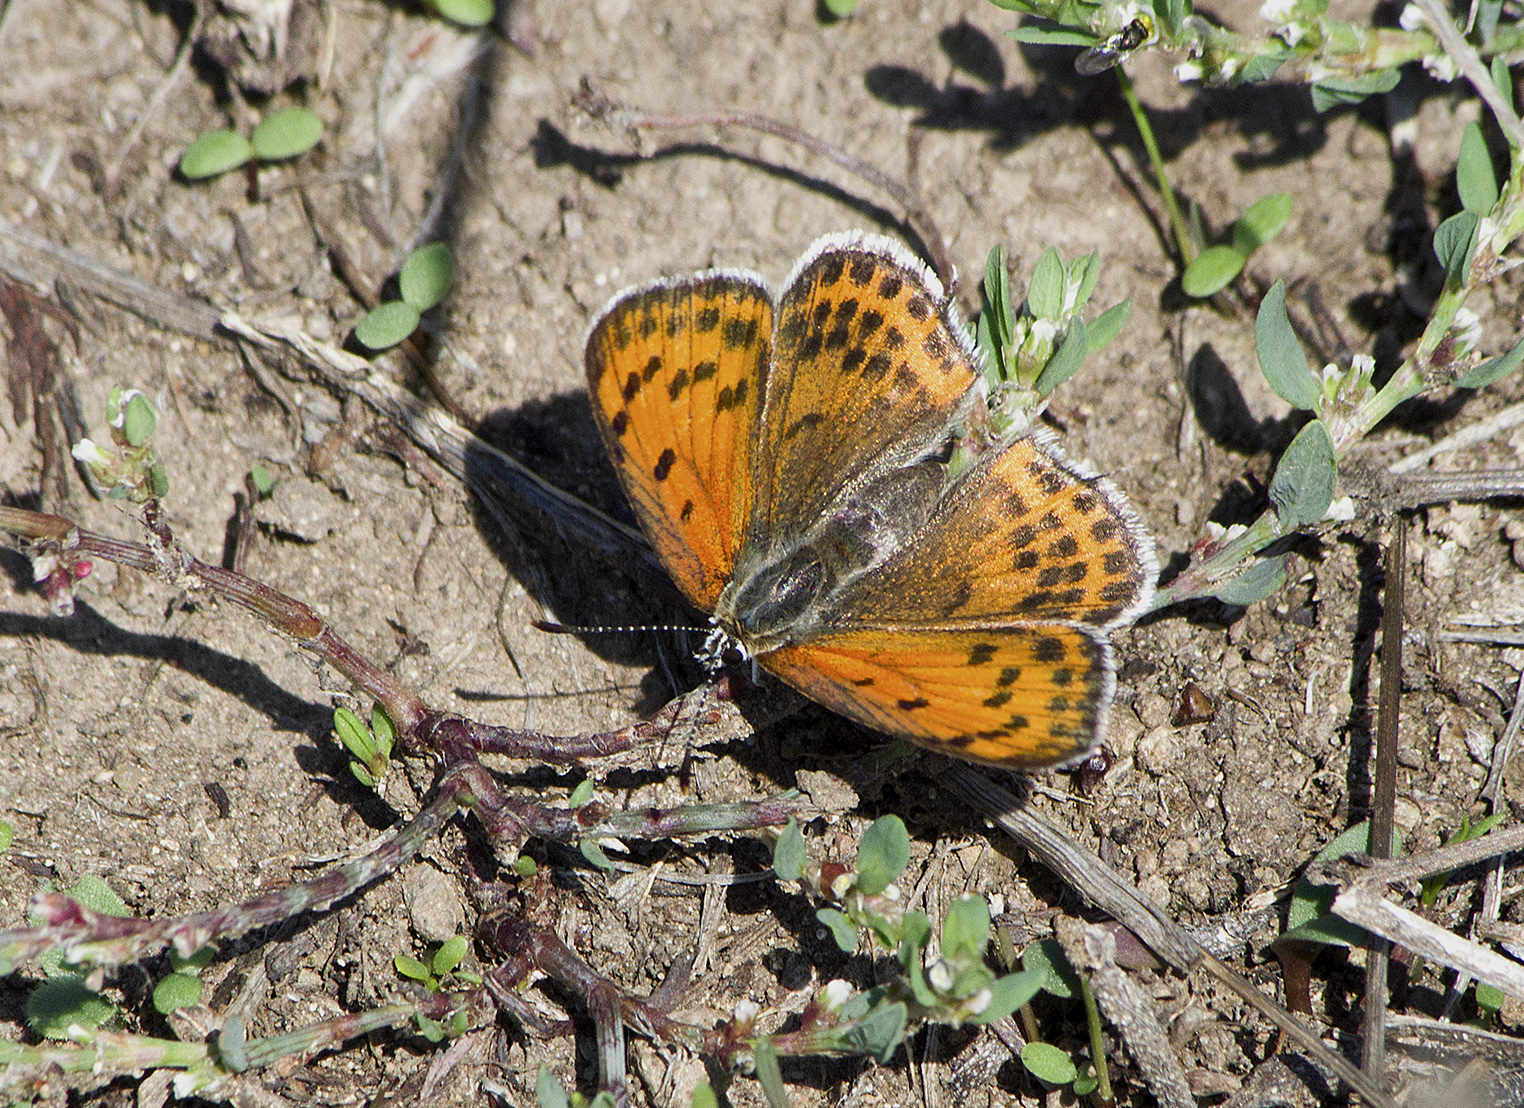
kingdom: Animalia
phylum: Arthropoda
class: Insecta
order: Lepidoptera
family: Lycaenidae
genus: Thersamonia
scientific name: Thersamonia thersamon
